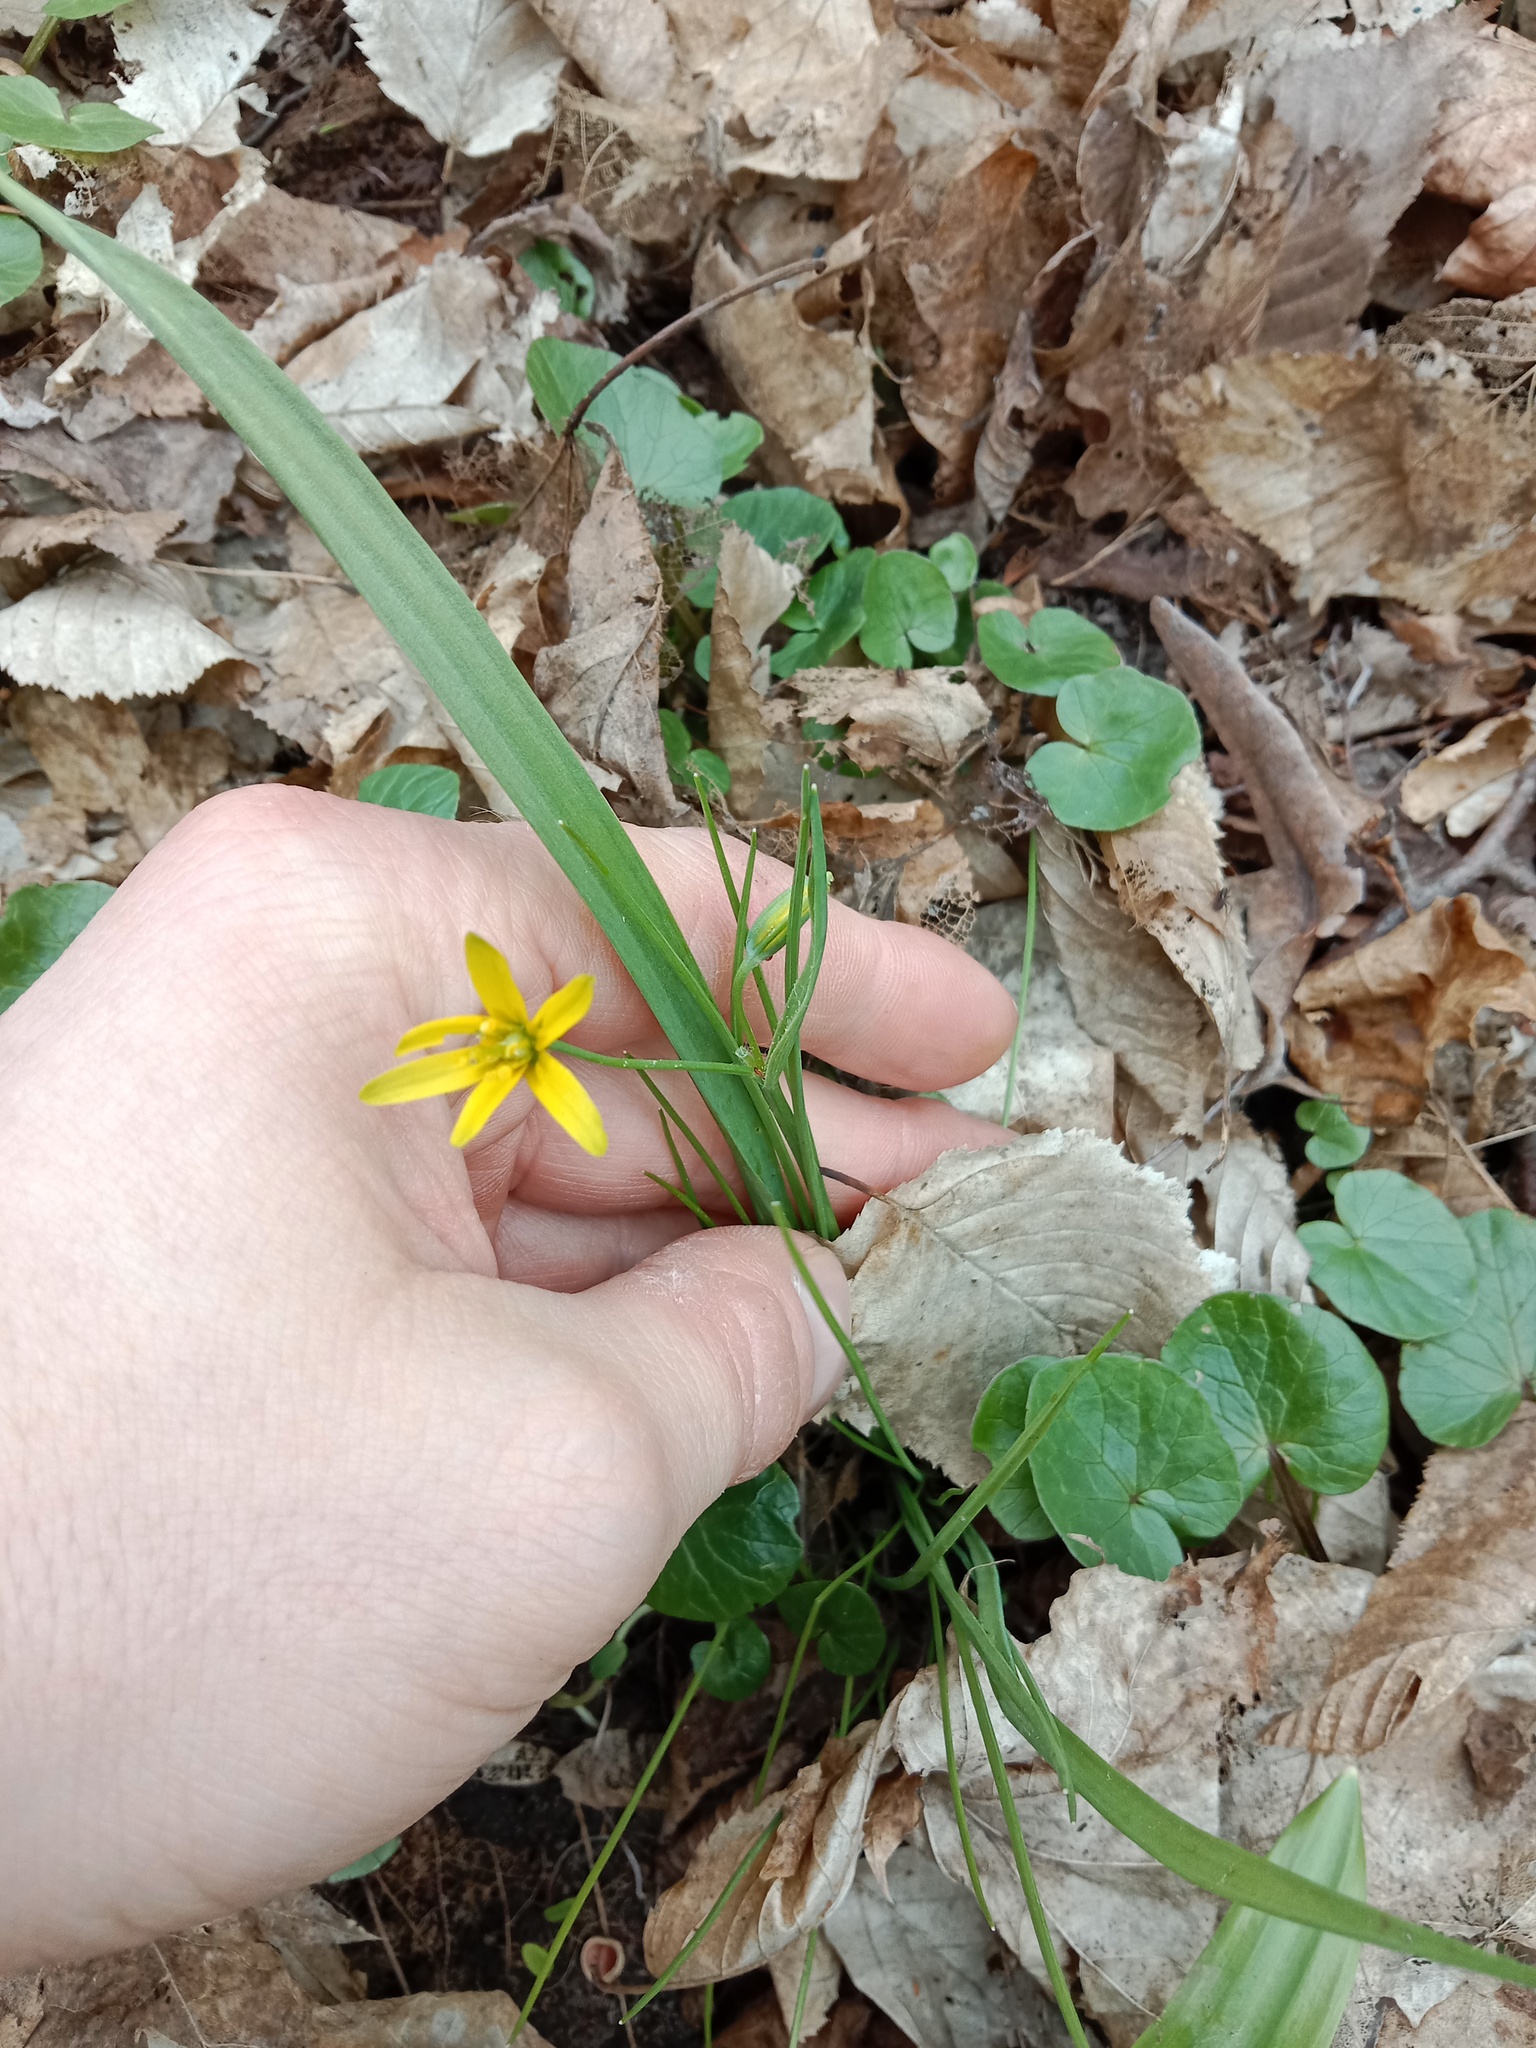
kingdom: Plantae
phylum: Tracheophyta
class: Liliopsida
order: Liliales
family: Liliaceae
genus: Gagea
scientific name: Gagea lutea
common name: Yellow star-of-bethlehem
